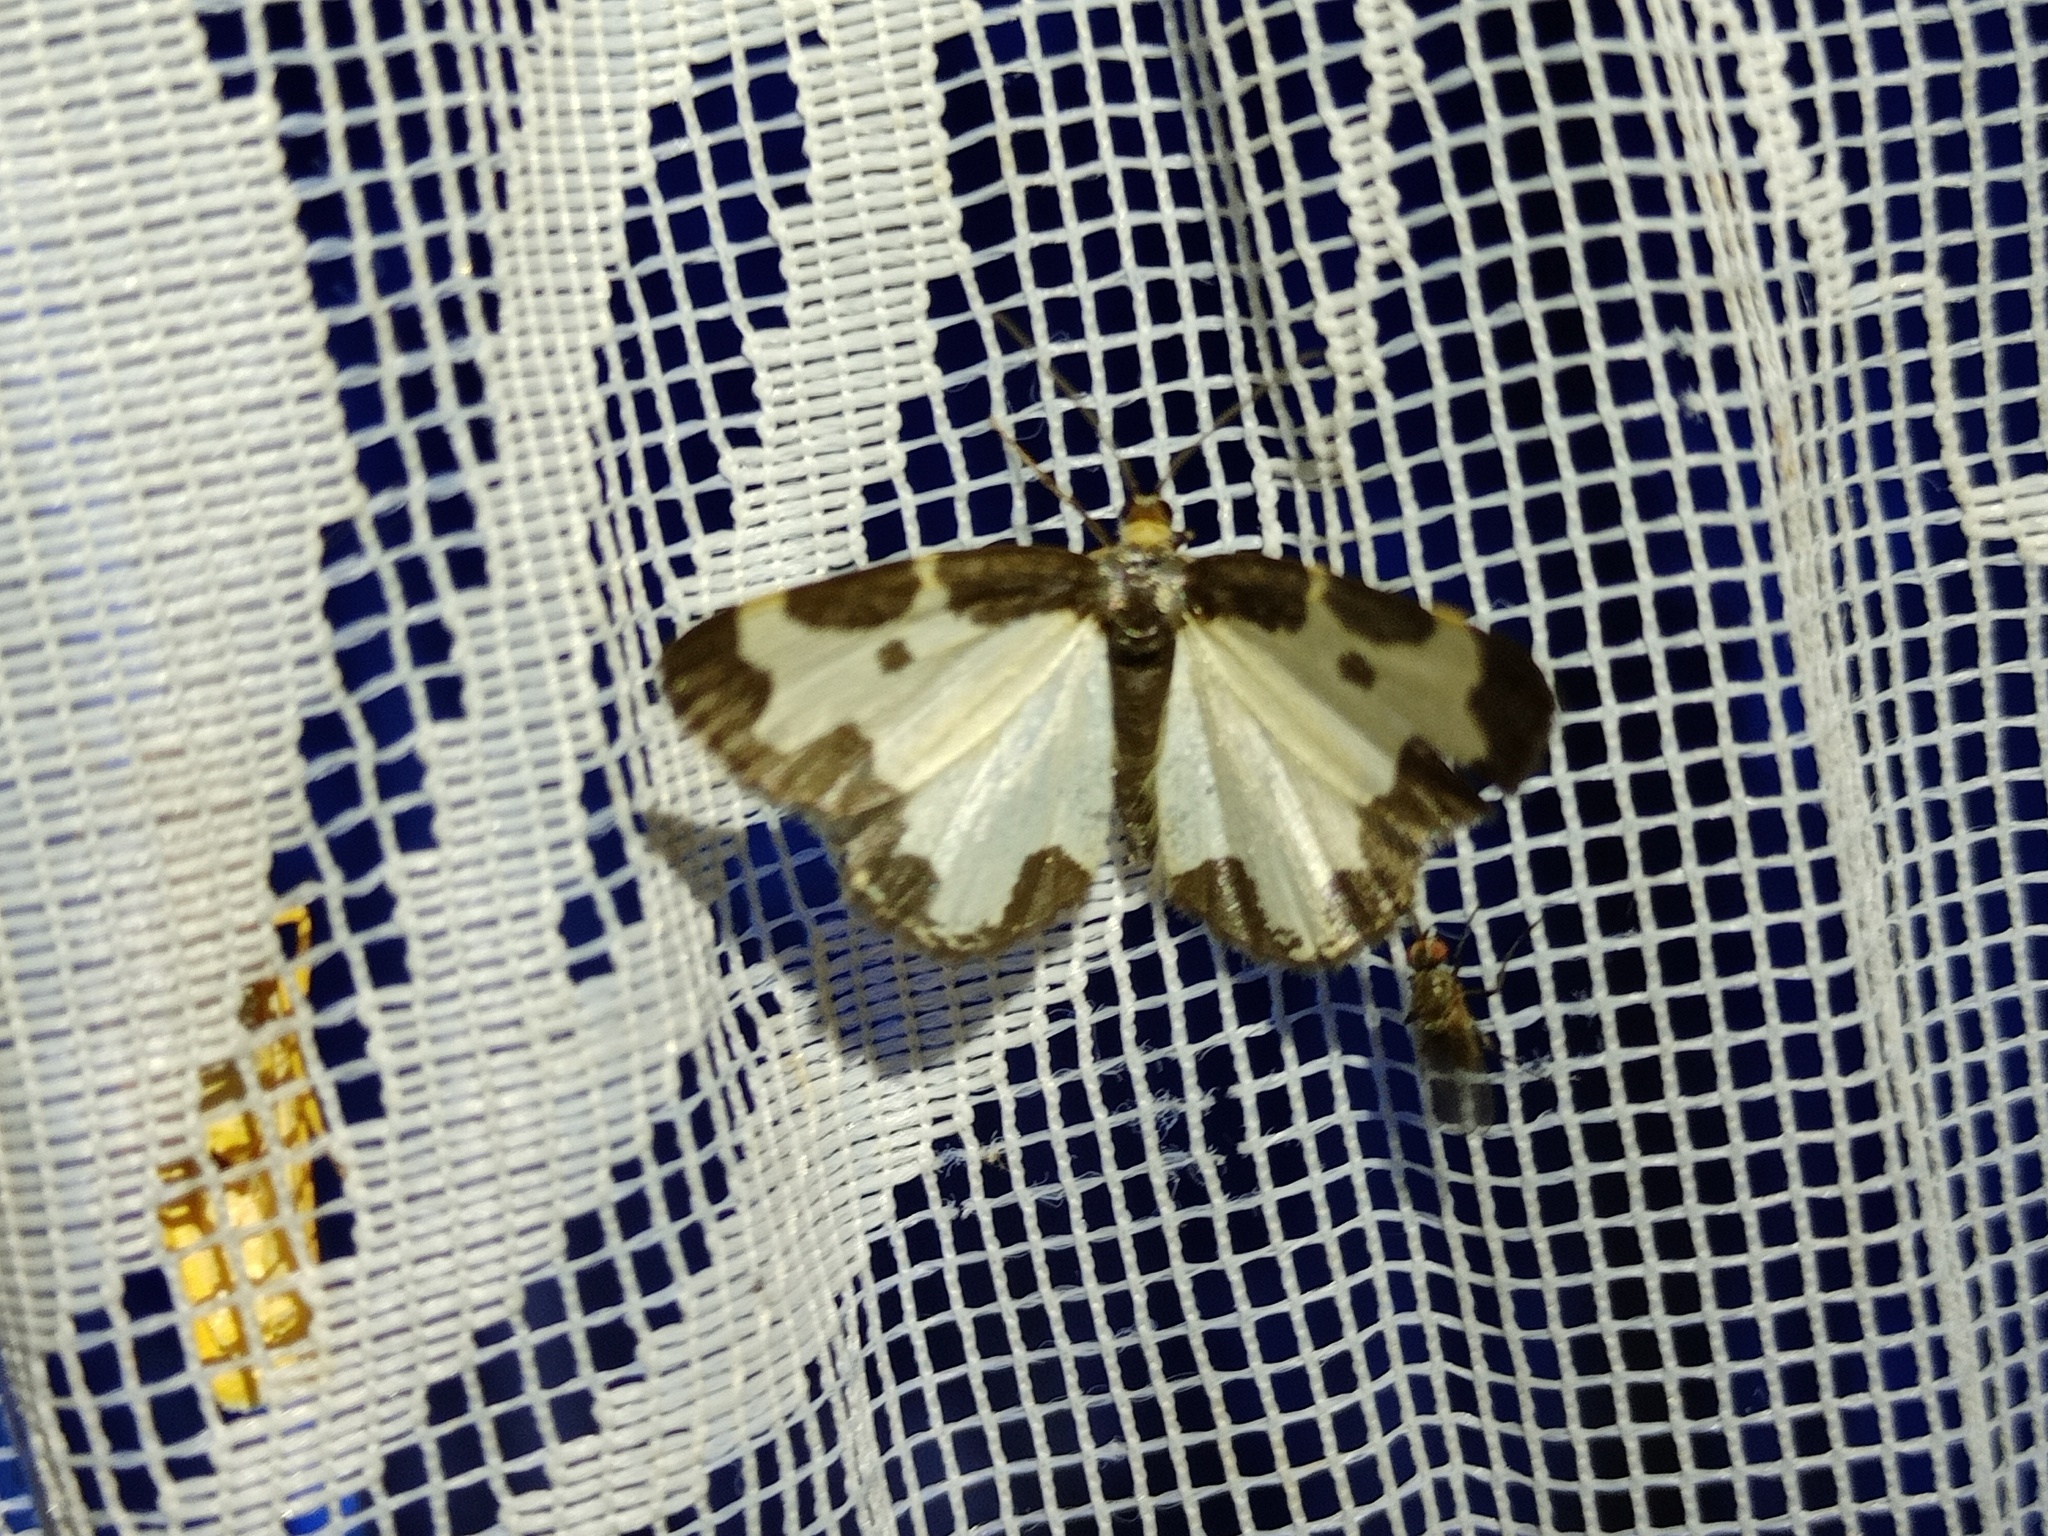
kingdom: Animalia
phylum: Arthropoda
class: Insecta
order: Lepidoptera
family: Geometridae
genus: Lomaspilis
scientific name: Lomaspilis marginata
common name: Clouded border
